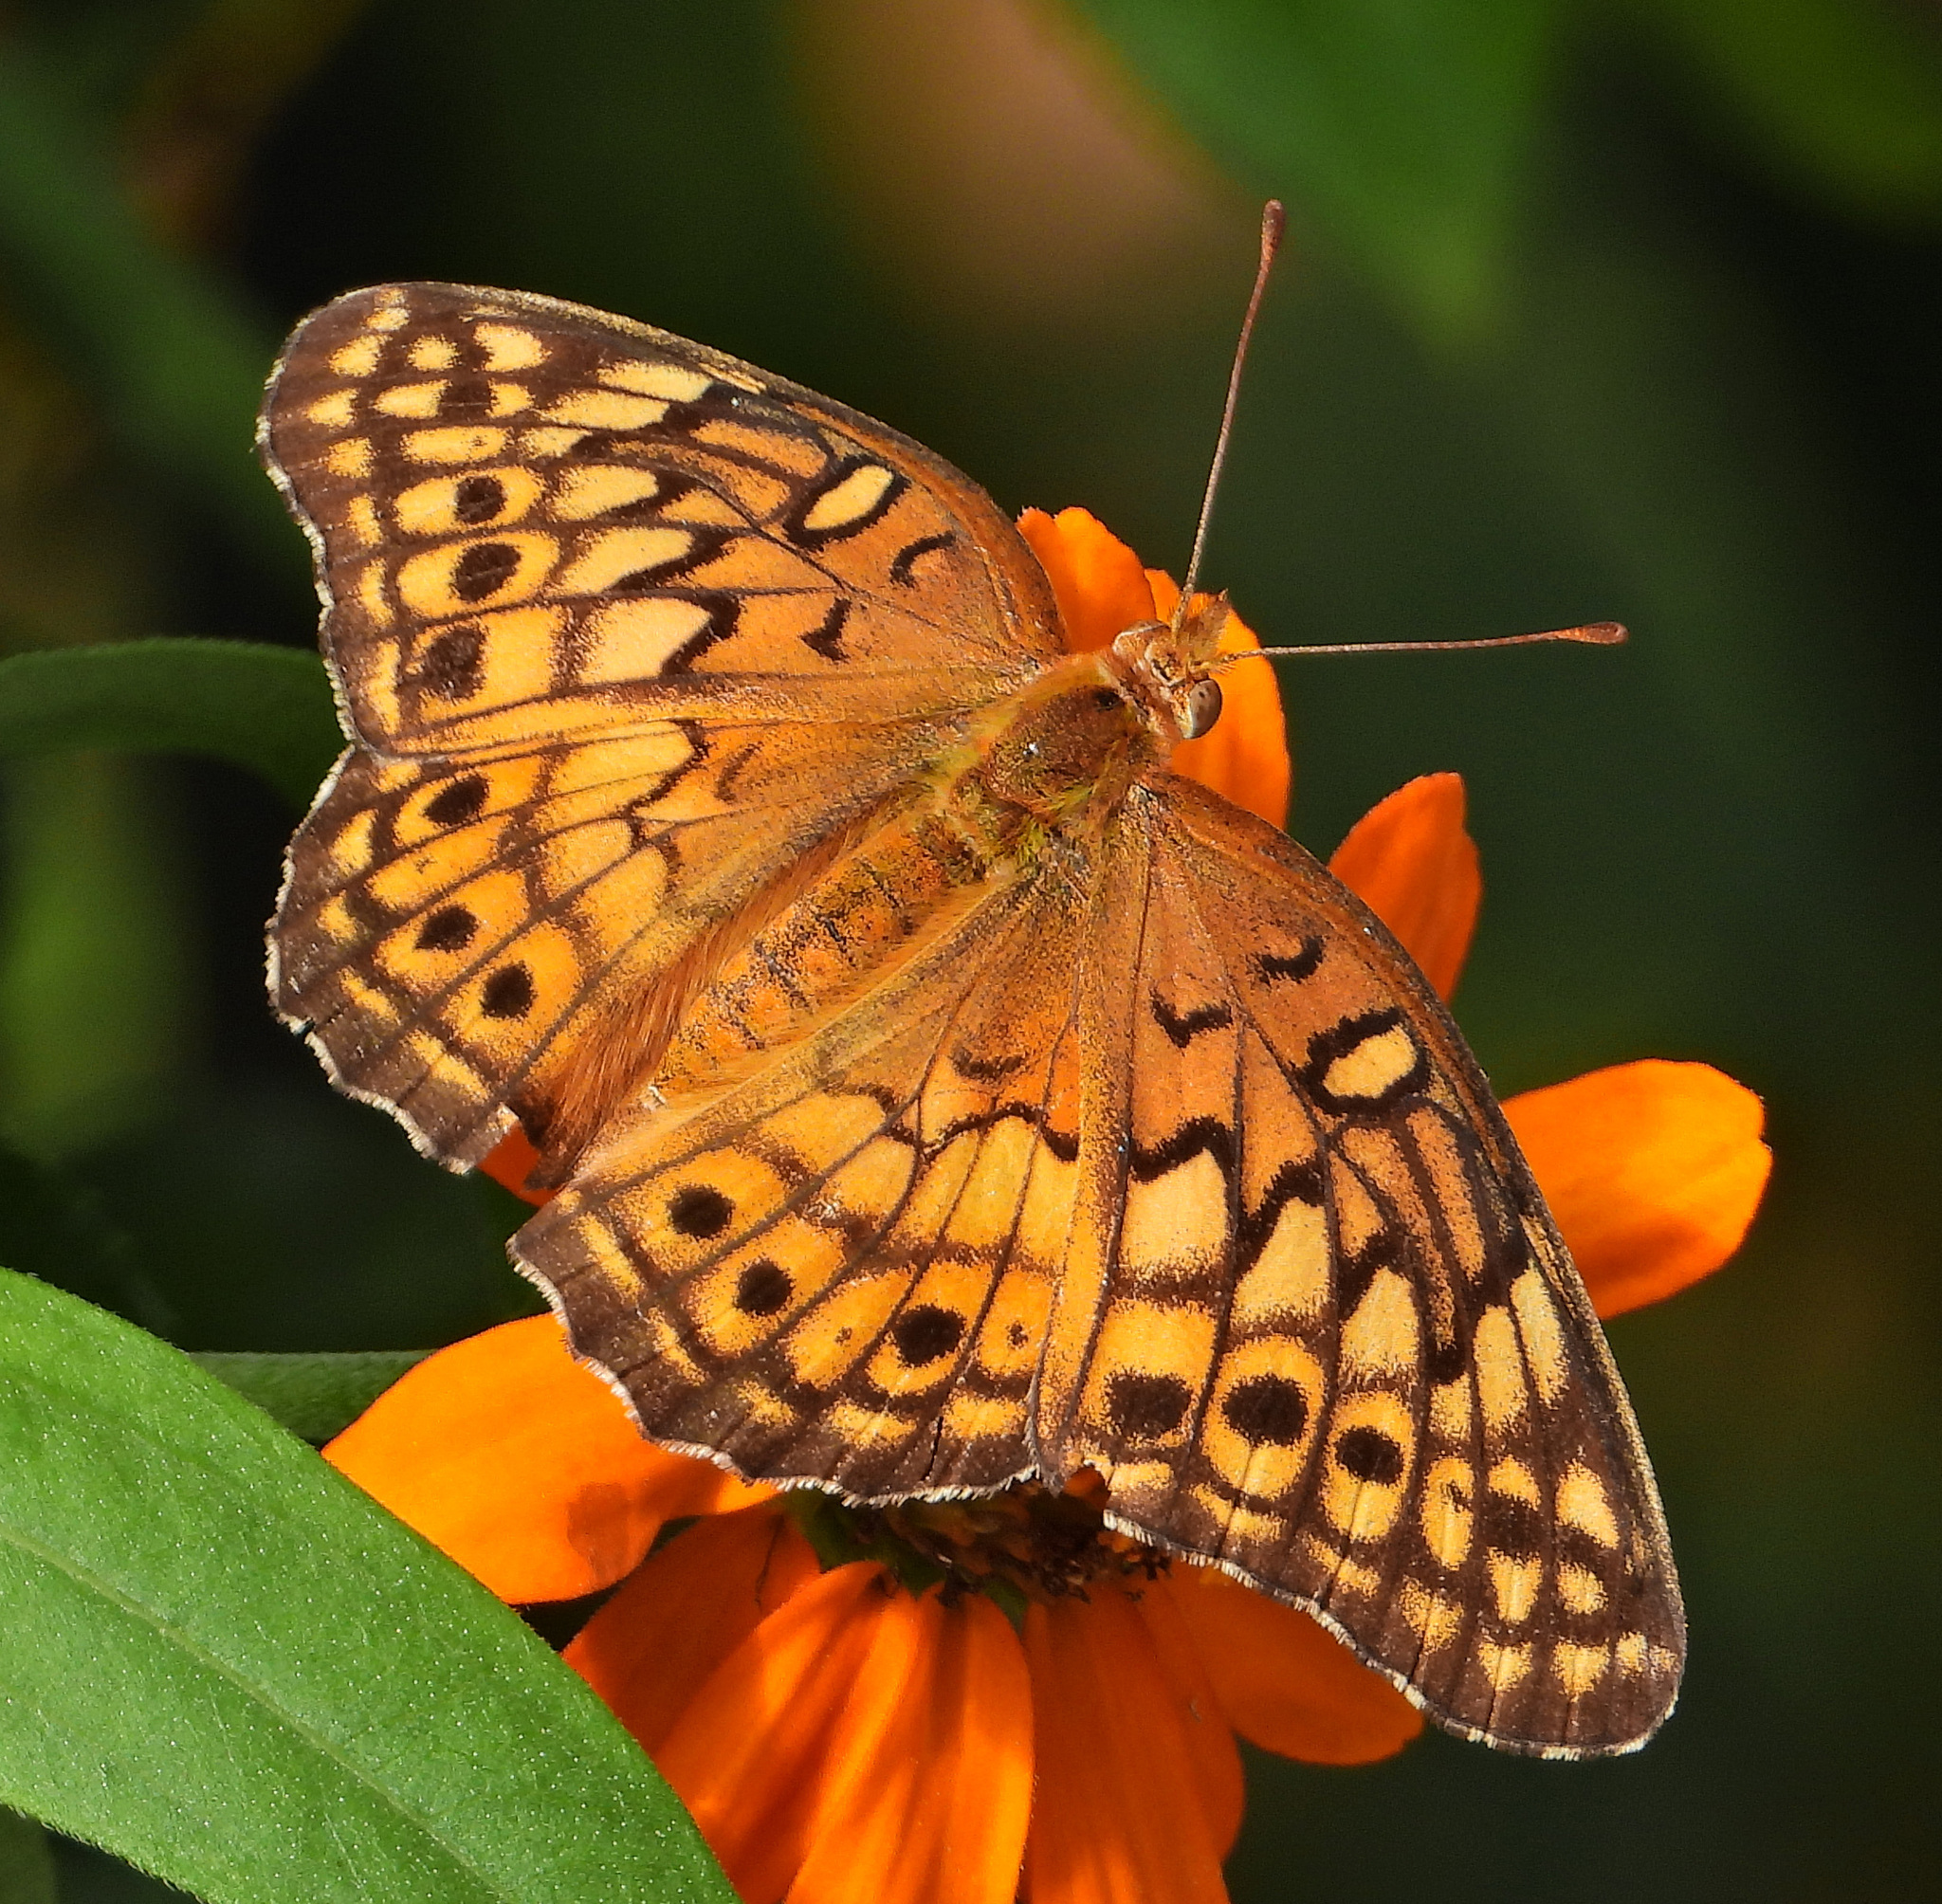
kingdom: Animalia
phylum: Arthropoda
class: Insecta
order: Lepidoptera
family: Nymphalidae
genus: Euptoieta
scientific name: Euptoieta claudia
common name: Variegated fritillary
